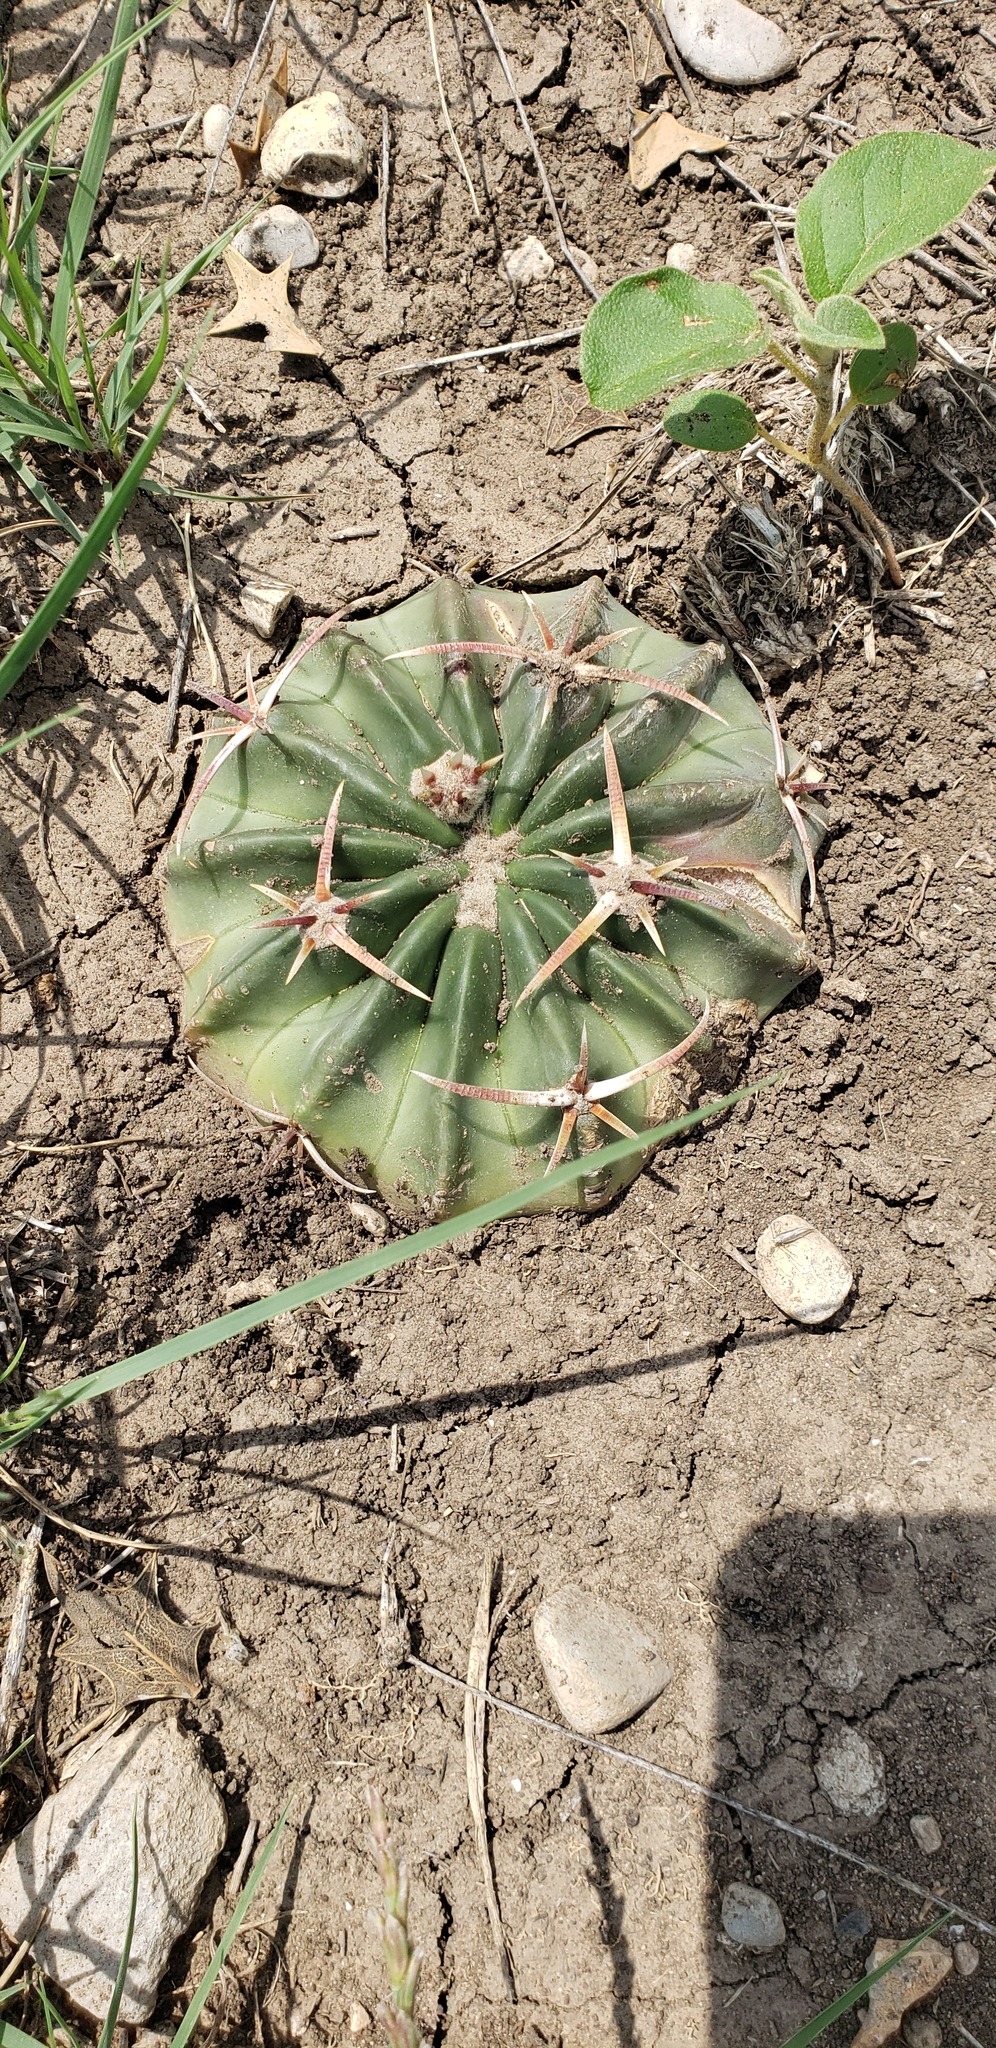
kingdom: Plantae
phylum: Tracheophyta
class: Magnoliopsida
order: Caryophyllales
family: Cactaceae
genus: Echinocactus
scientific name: Echinocactus texensis
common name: Devil's pincushion
